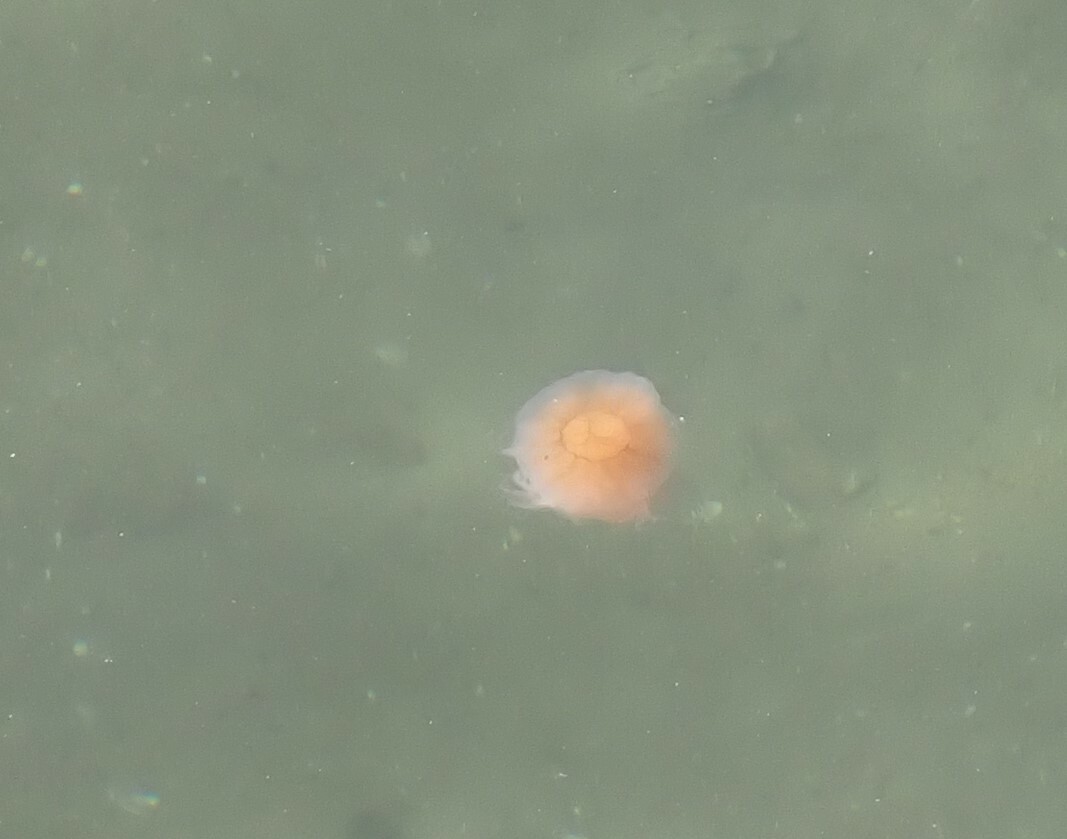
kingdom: Animalia
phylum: Cnidaria
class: Scyphozoa
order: Semaeostomeae
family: Cyaneidae
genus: Cyanea
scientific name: Cyanea capillata
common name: Lion's mane jellyfish
